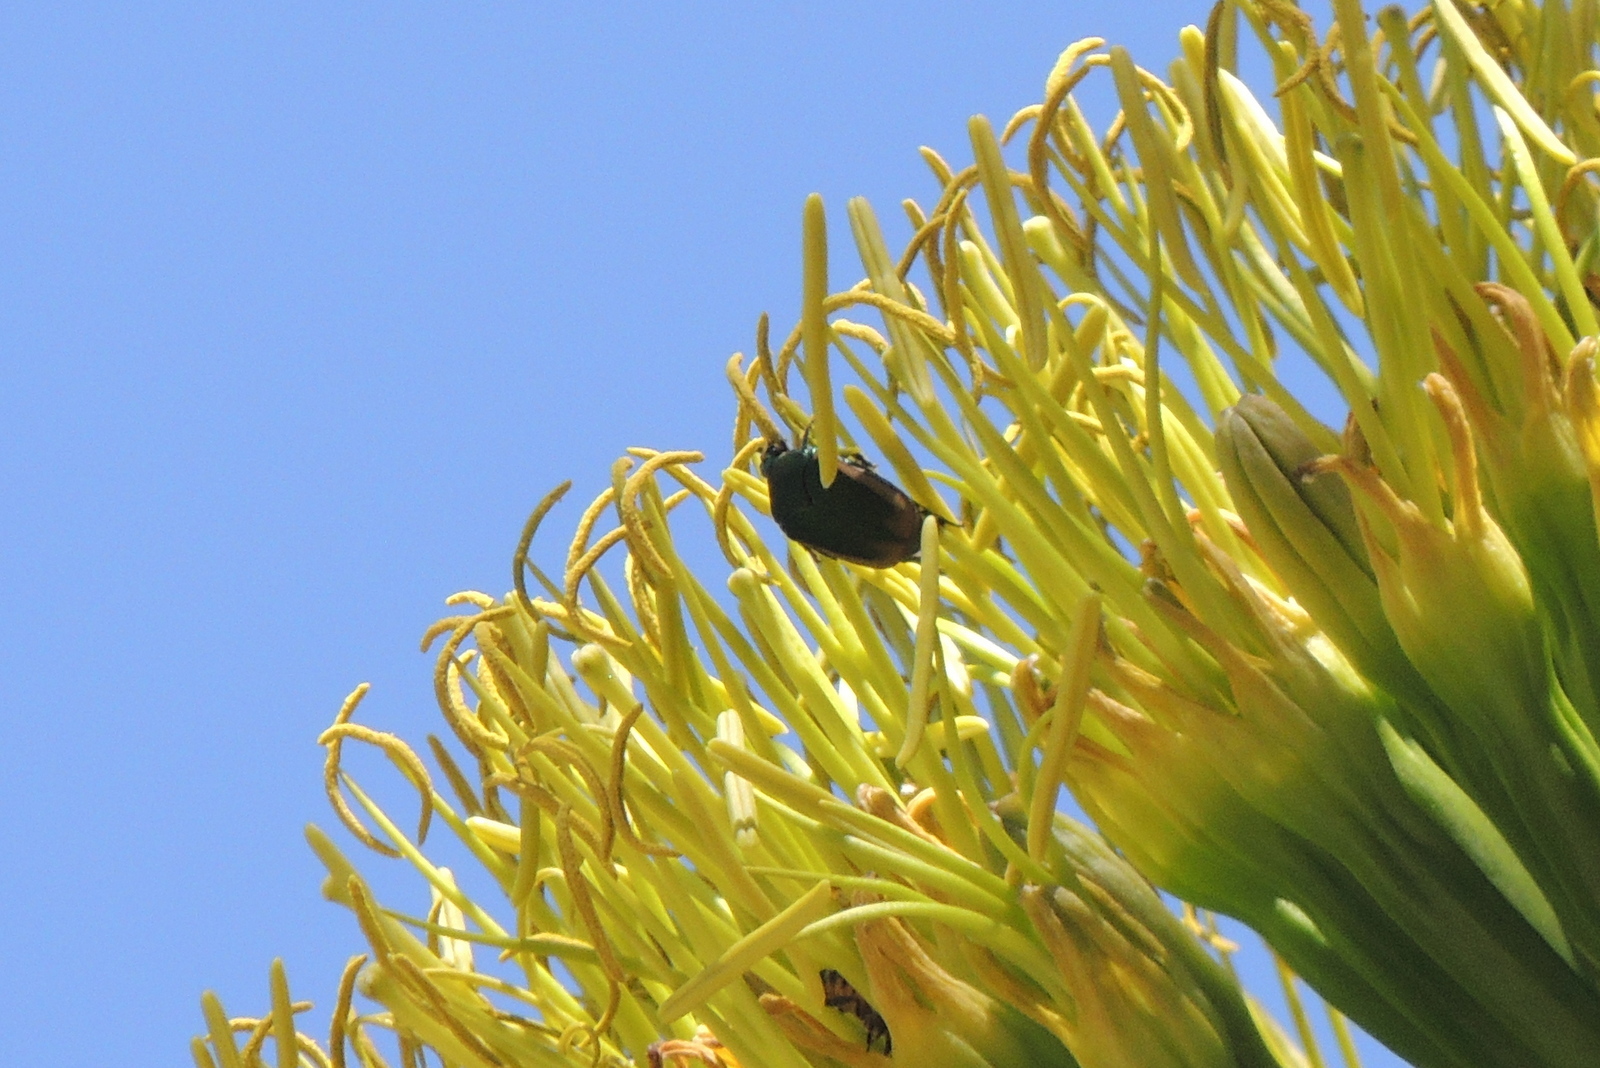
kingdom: Animalia
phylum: Arthropoda
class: Insecta
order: Coleoptera
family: Scarabaeidae
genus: Cotinis
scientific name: Cotinis mutabilis
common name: Figeater beetle
